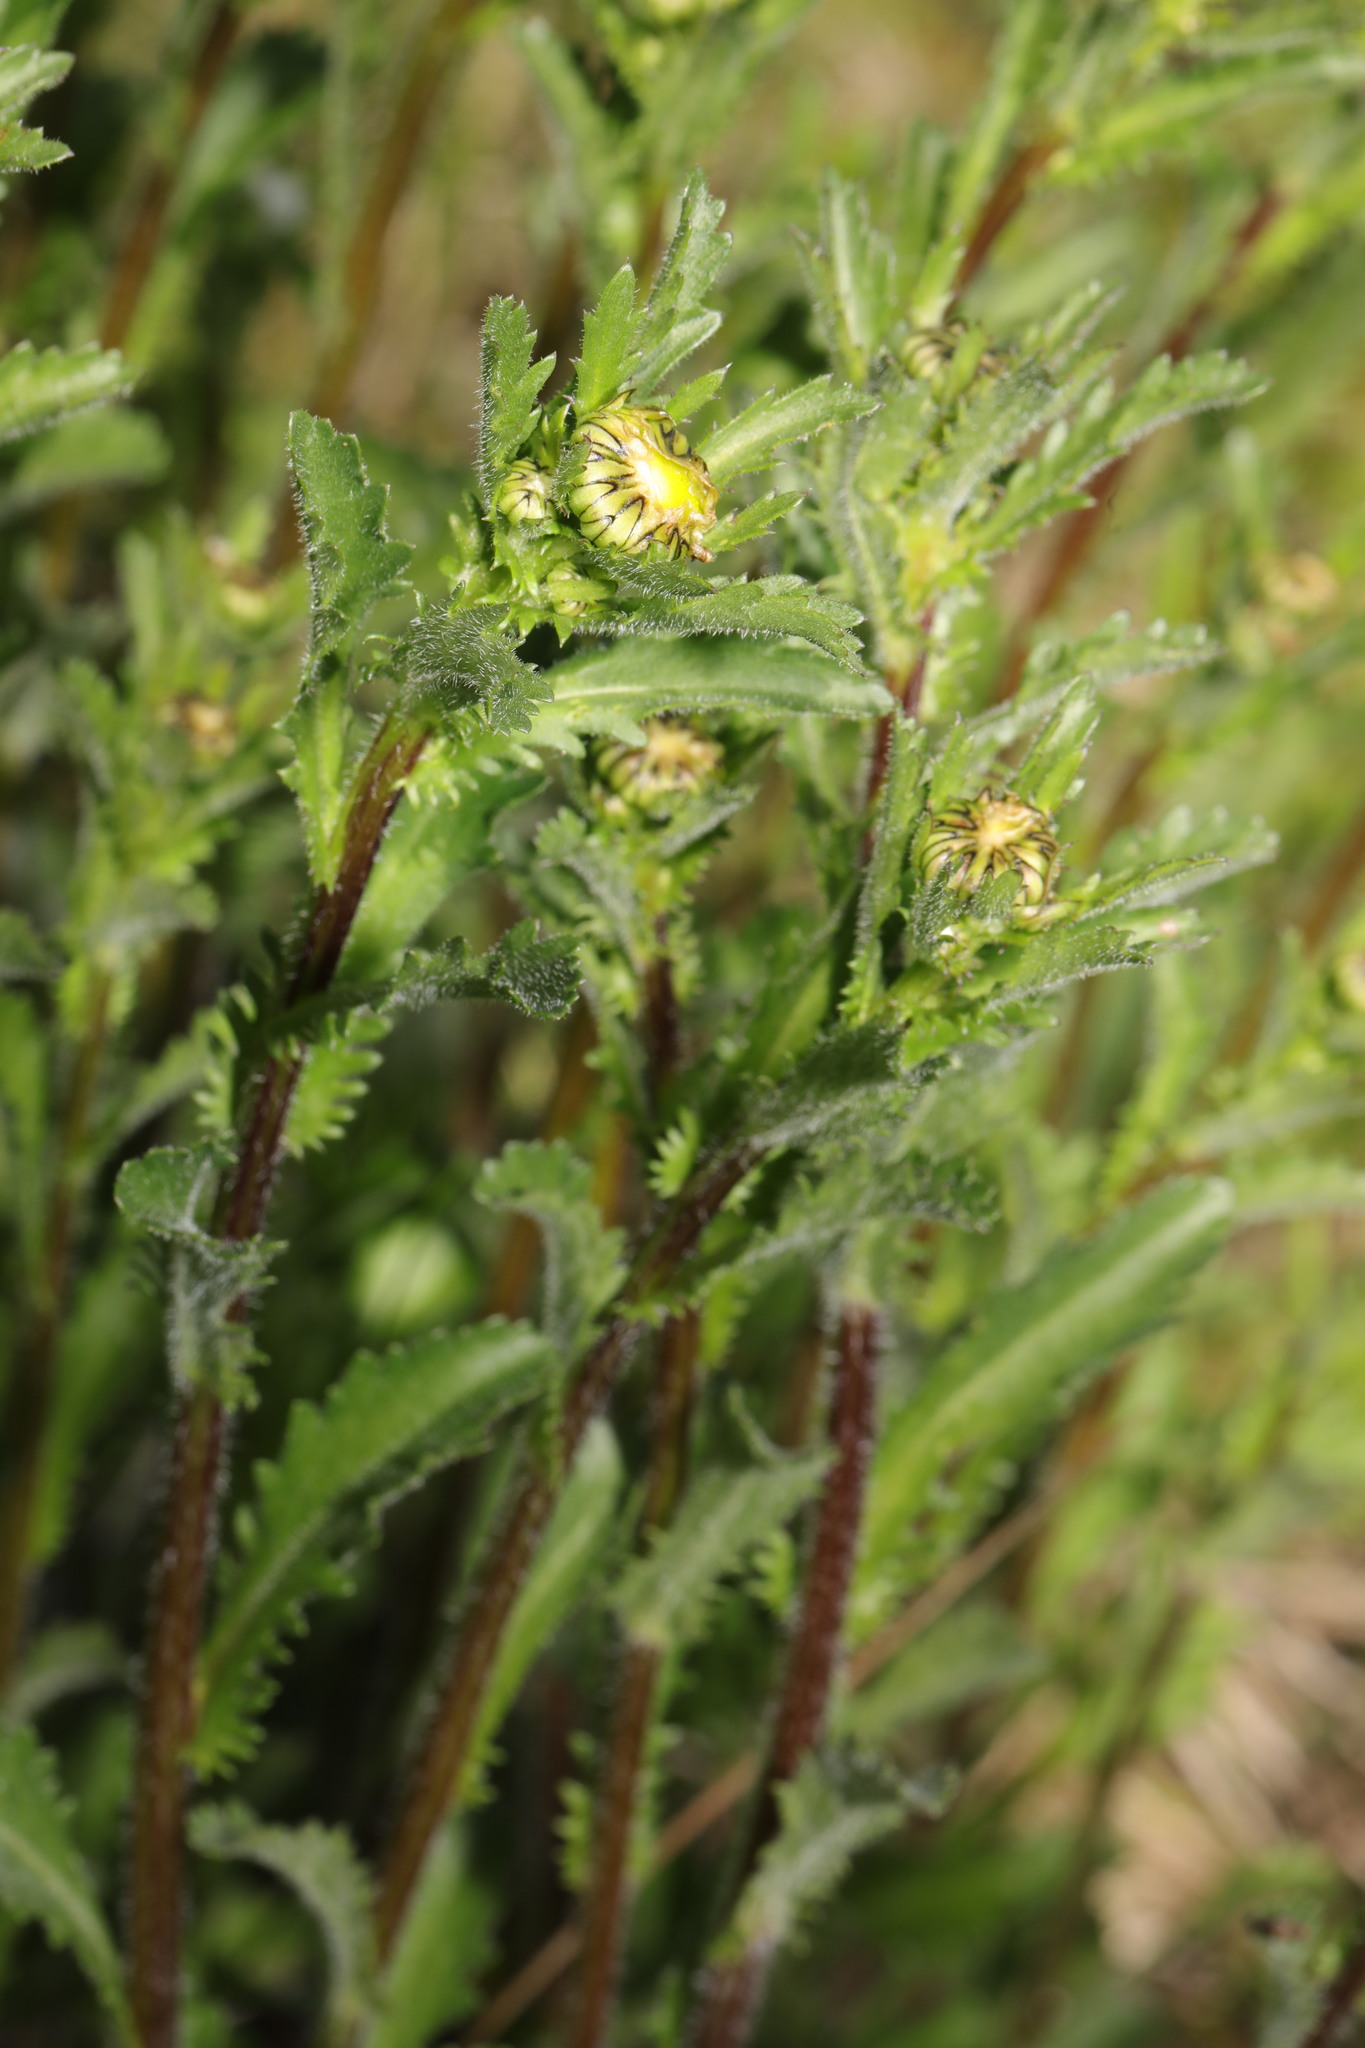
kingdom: Plantae
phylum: Tracheophyta
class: Magnoliopsida
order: Asterales
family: Asteraceae
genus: Leucanthemum
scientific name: Leucanthemum vulgare
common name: Oxeye daisy
